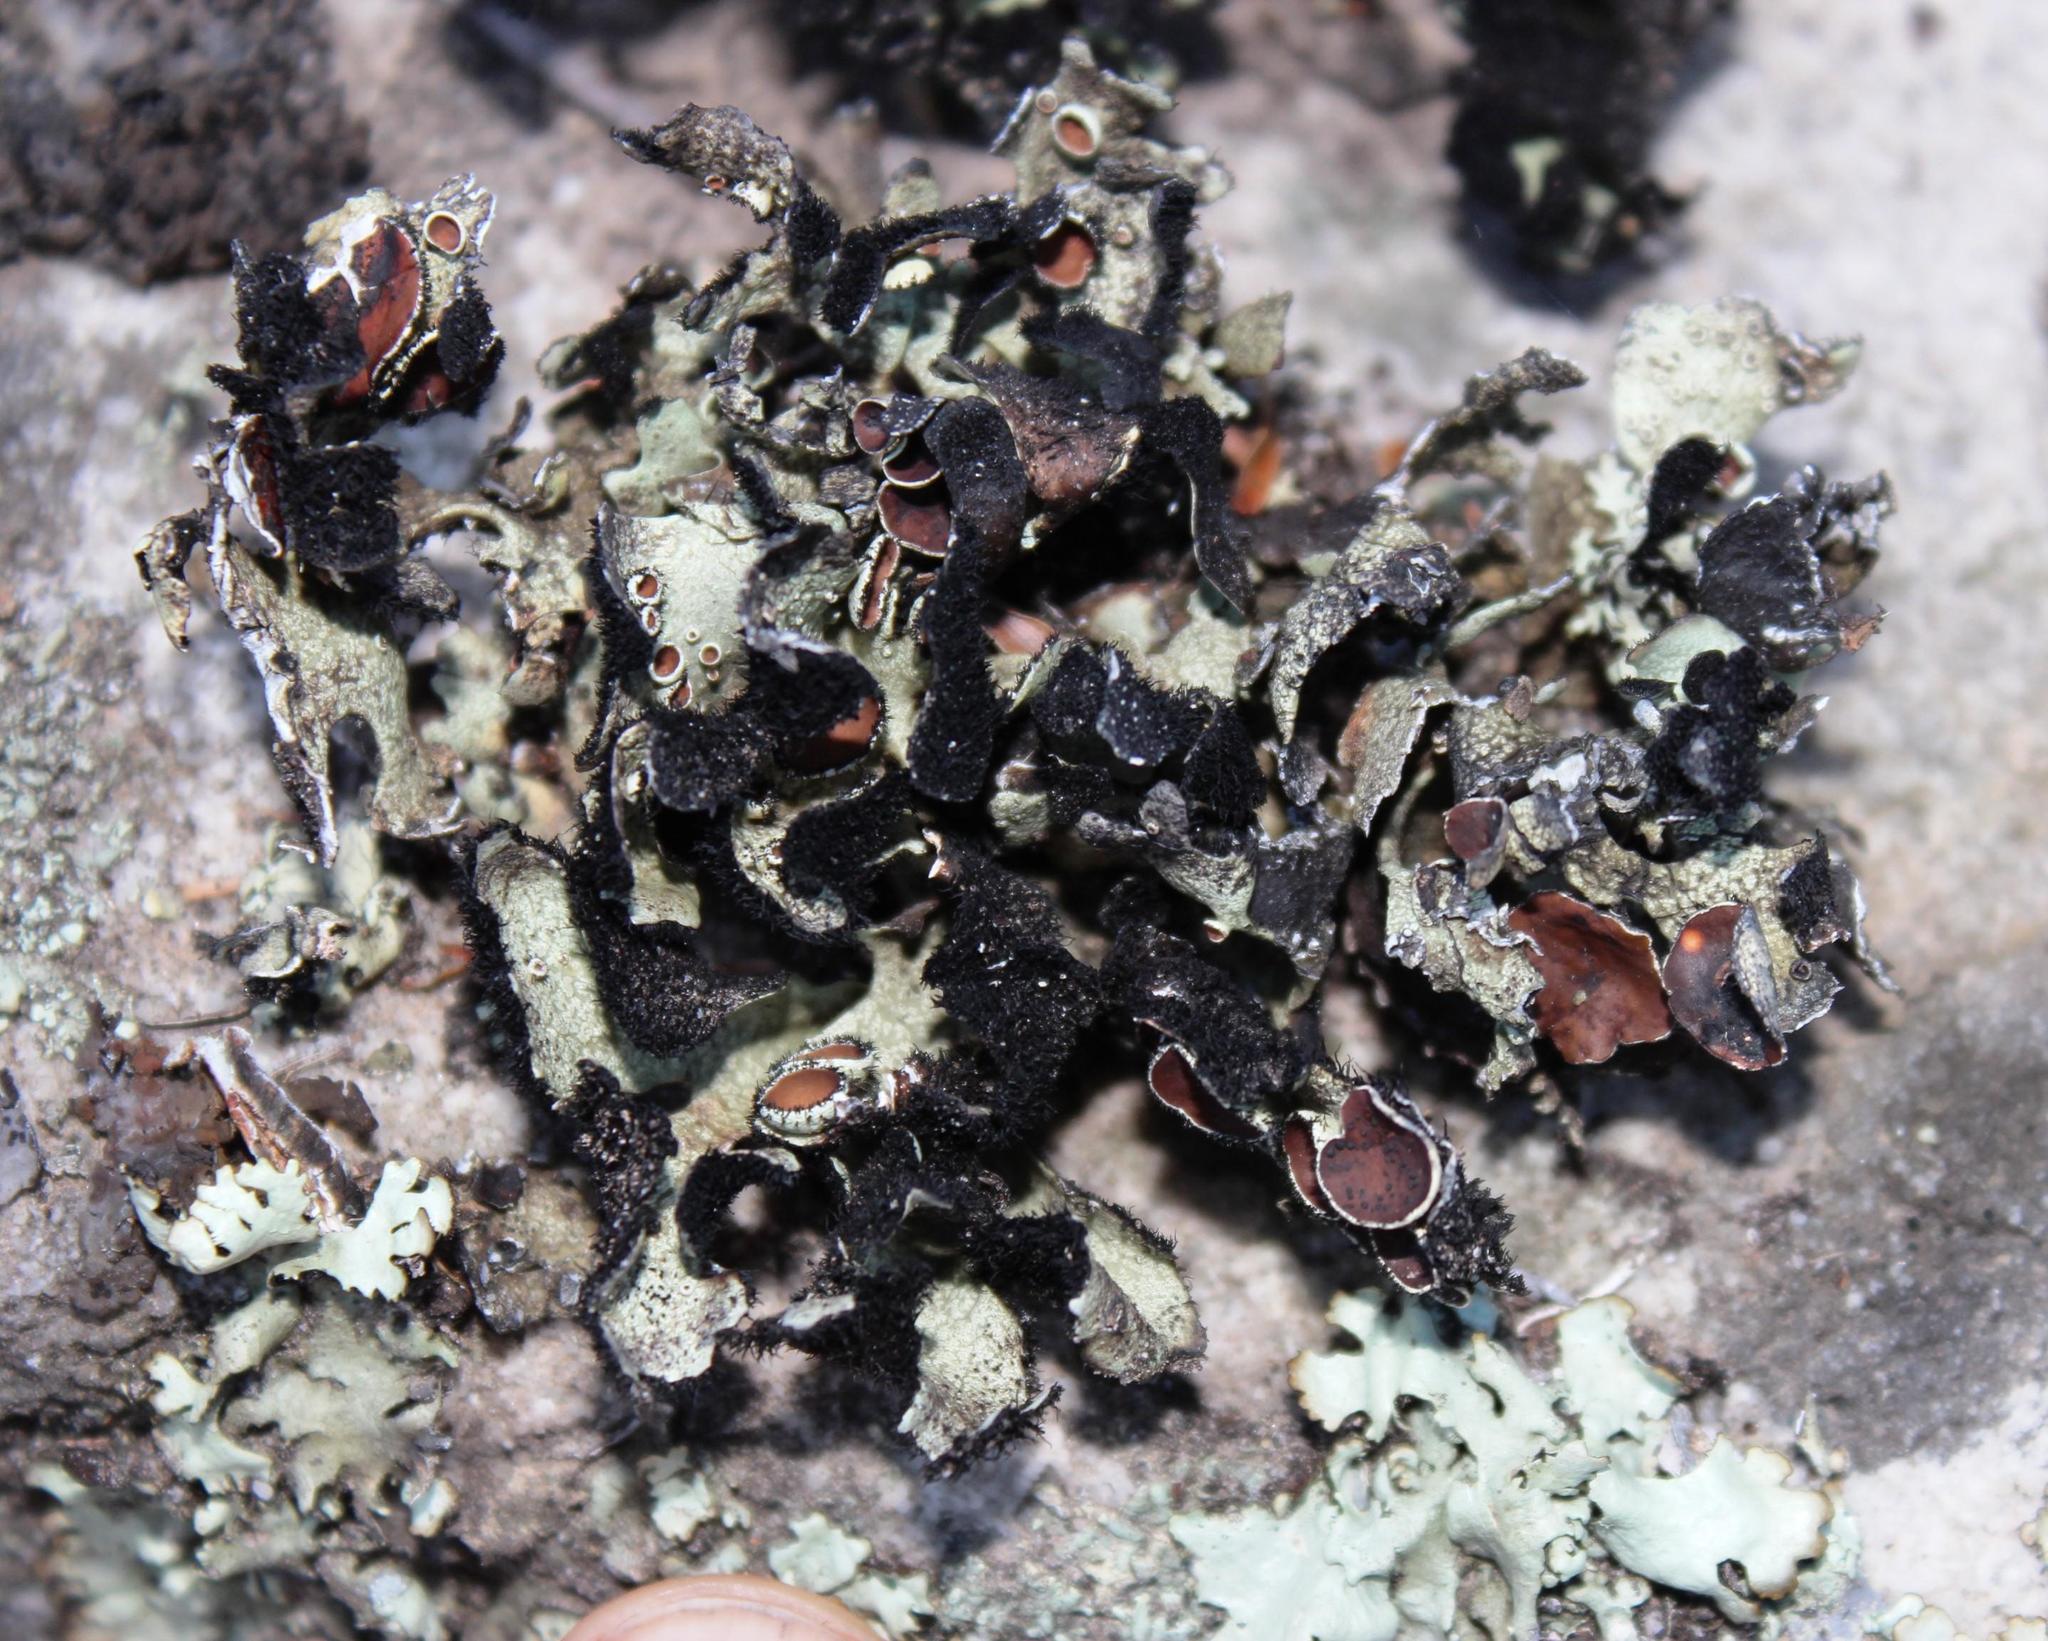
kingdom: Fungi
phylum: Ascomycota
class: Lecanoromycetes
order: Lecanorales
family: Parmeliaceae
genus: Xanthoparmelia
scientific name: Xanthoparmelia hottentotta
